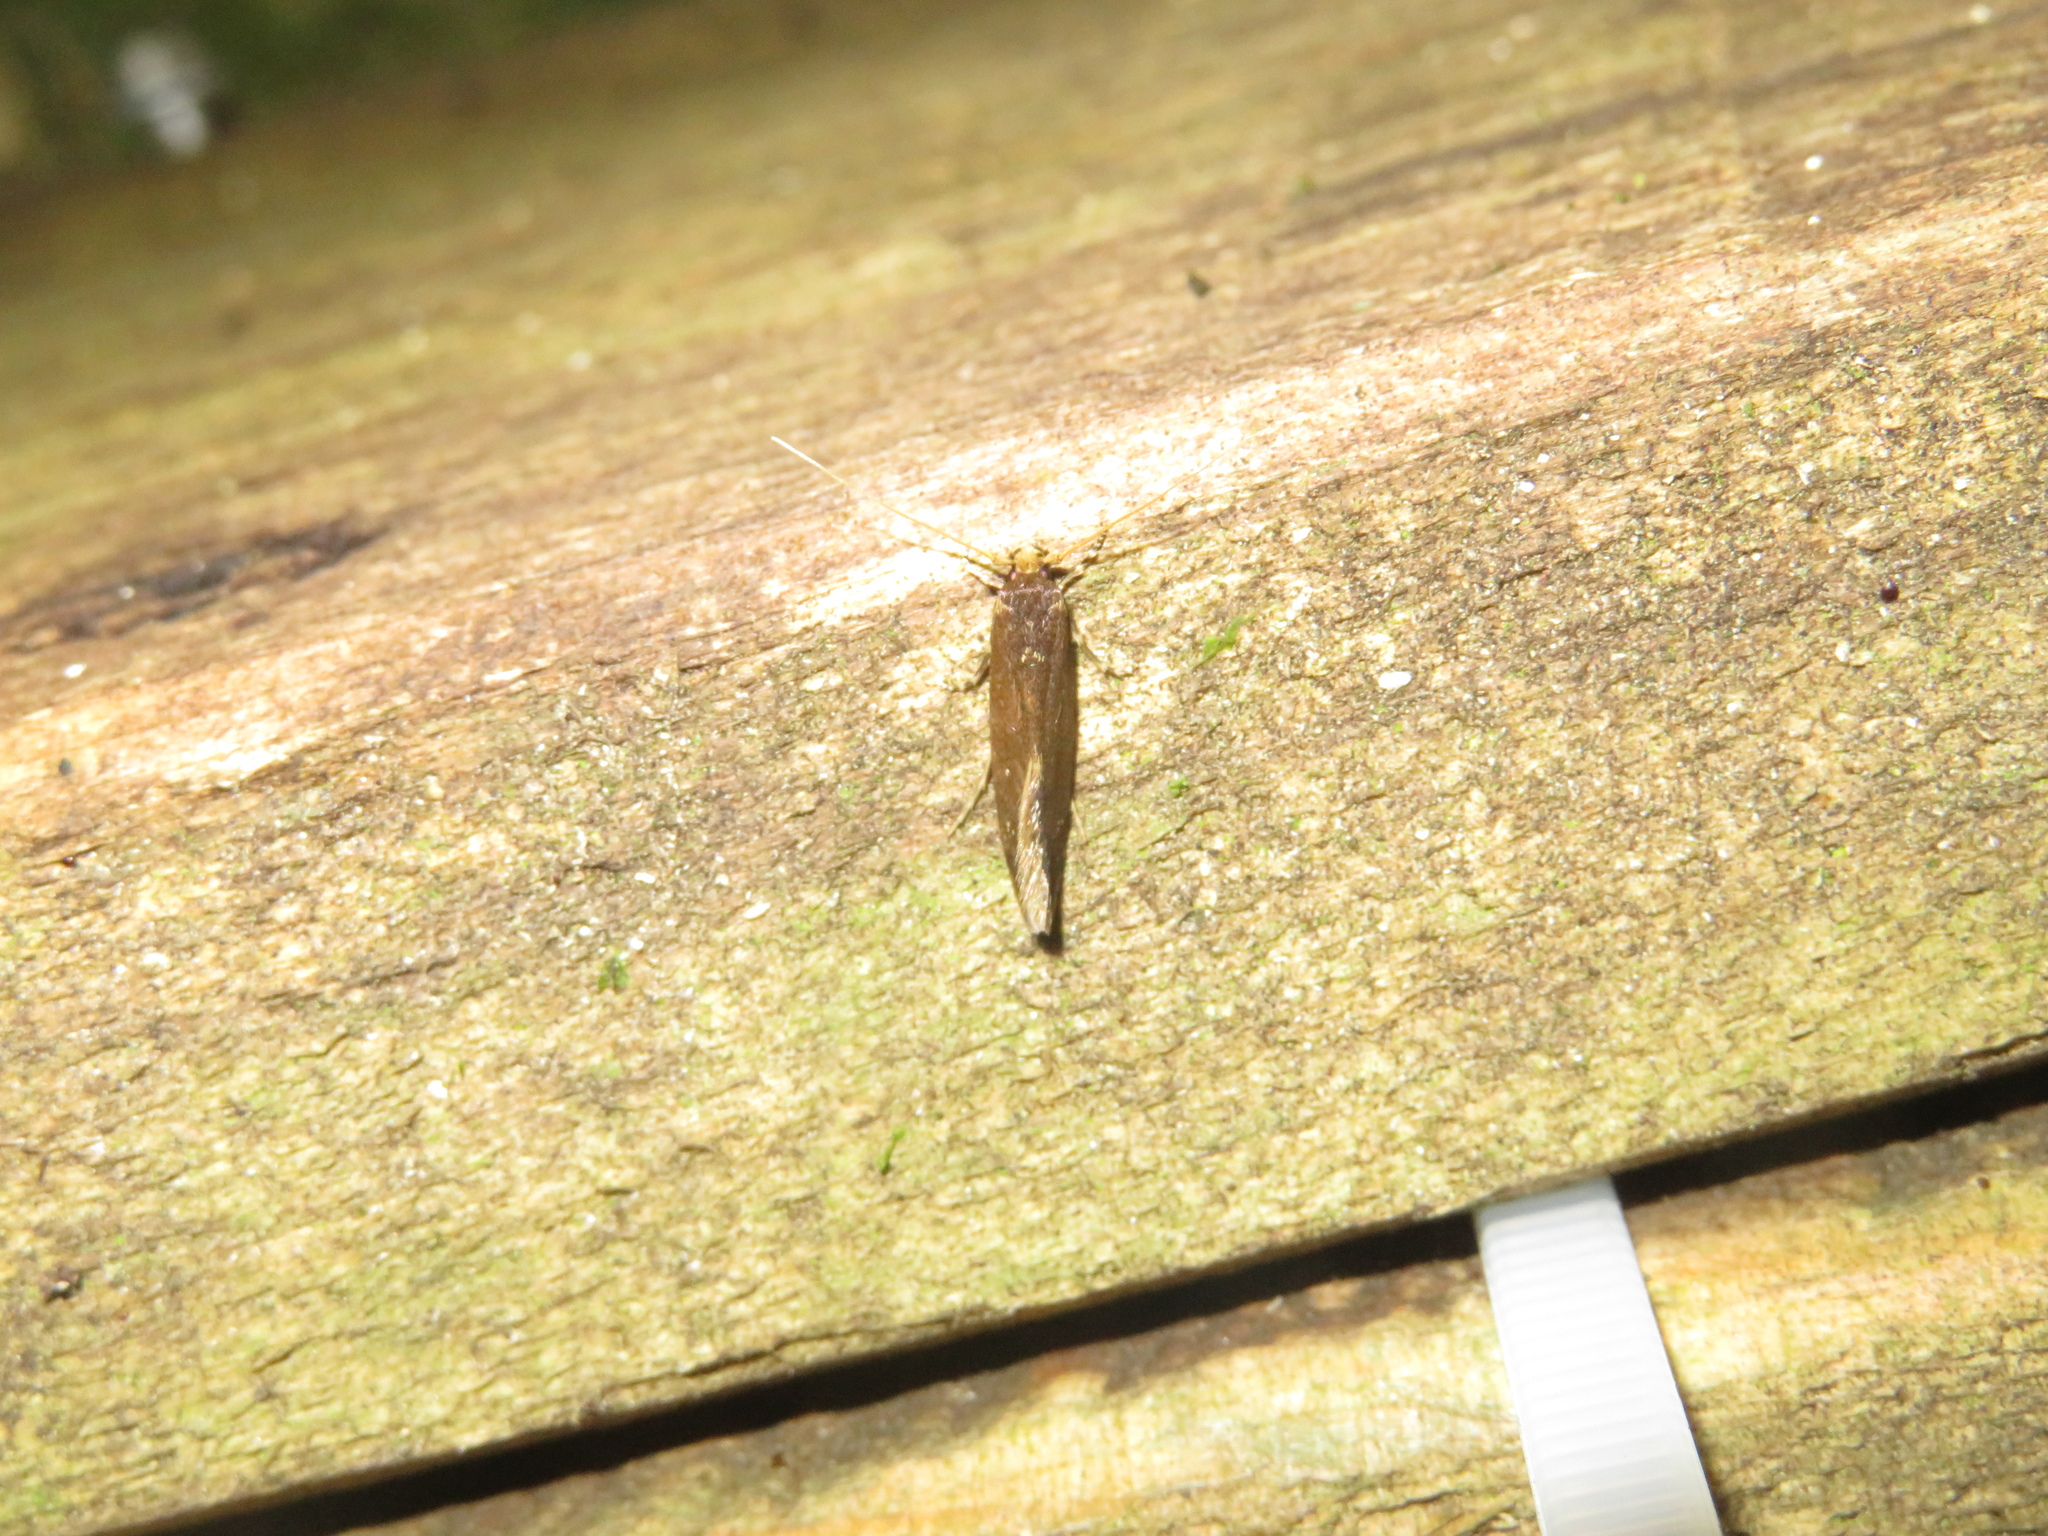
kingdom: Animalia
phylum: Arthropoda
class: Insecta
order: Lepidoptera
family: Tineidae
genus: Opogona
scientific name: Opogona omoscopa
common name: Moth
